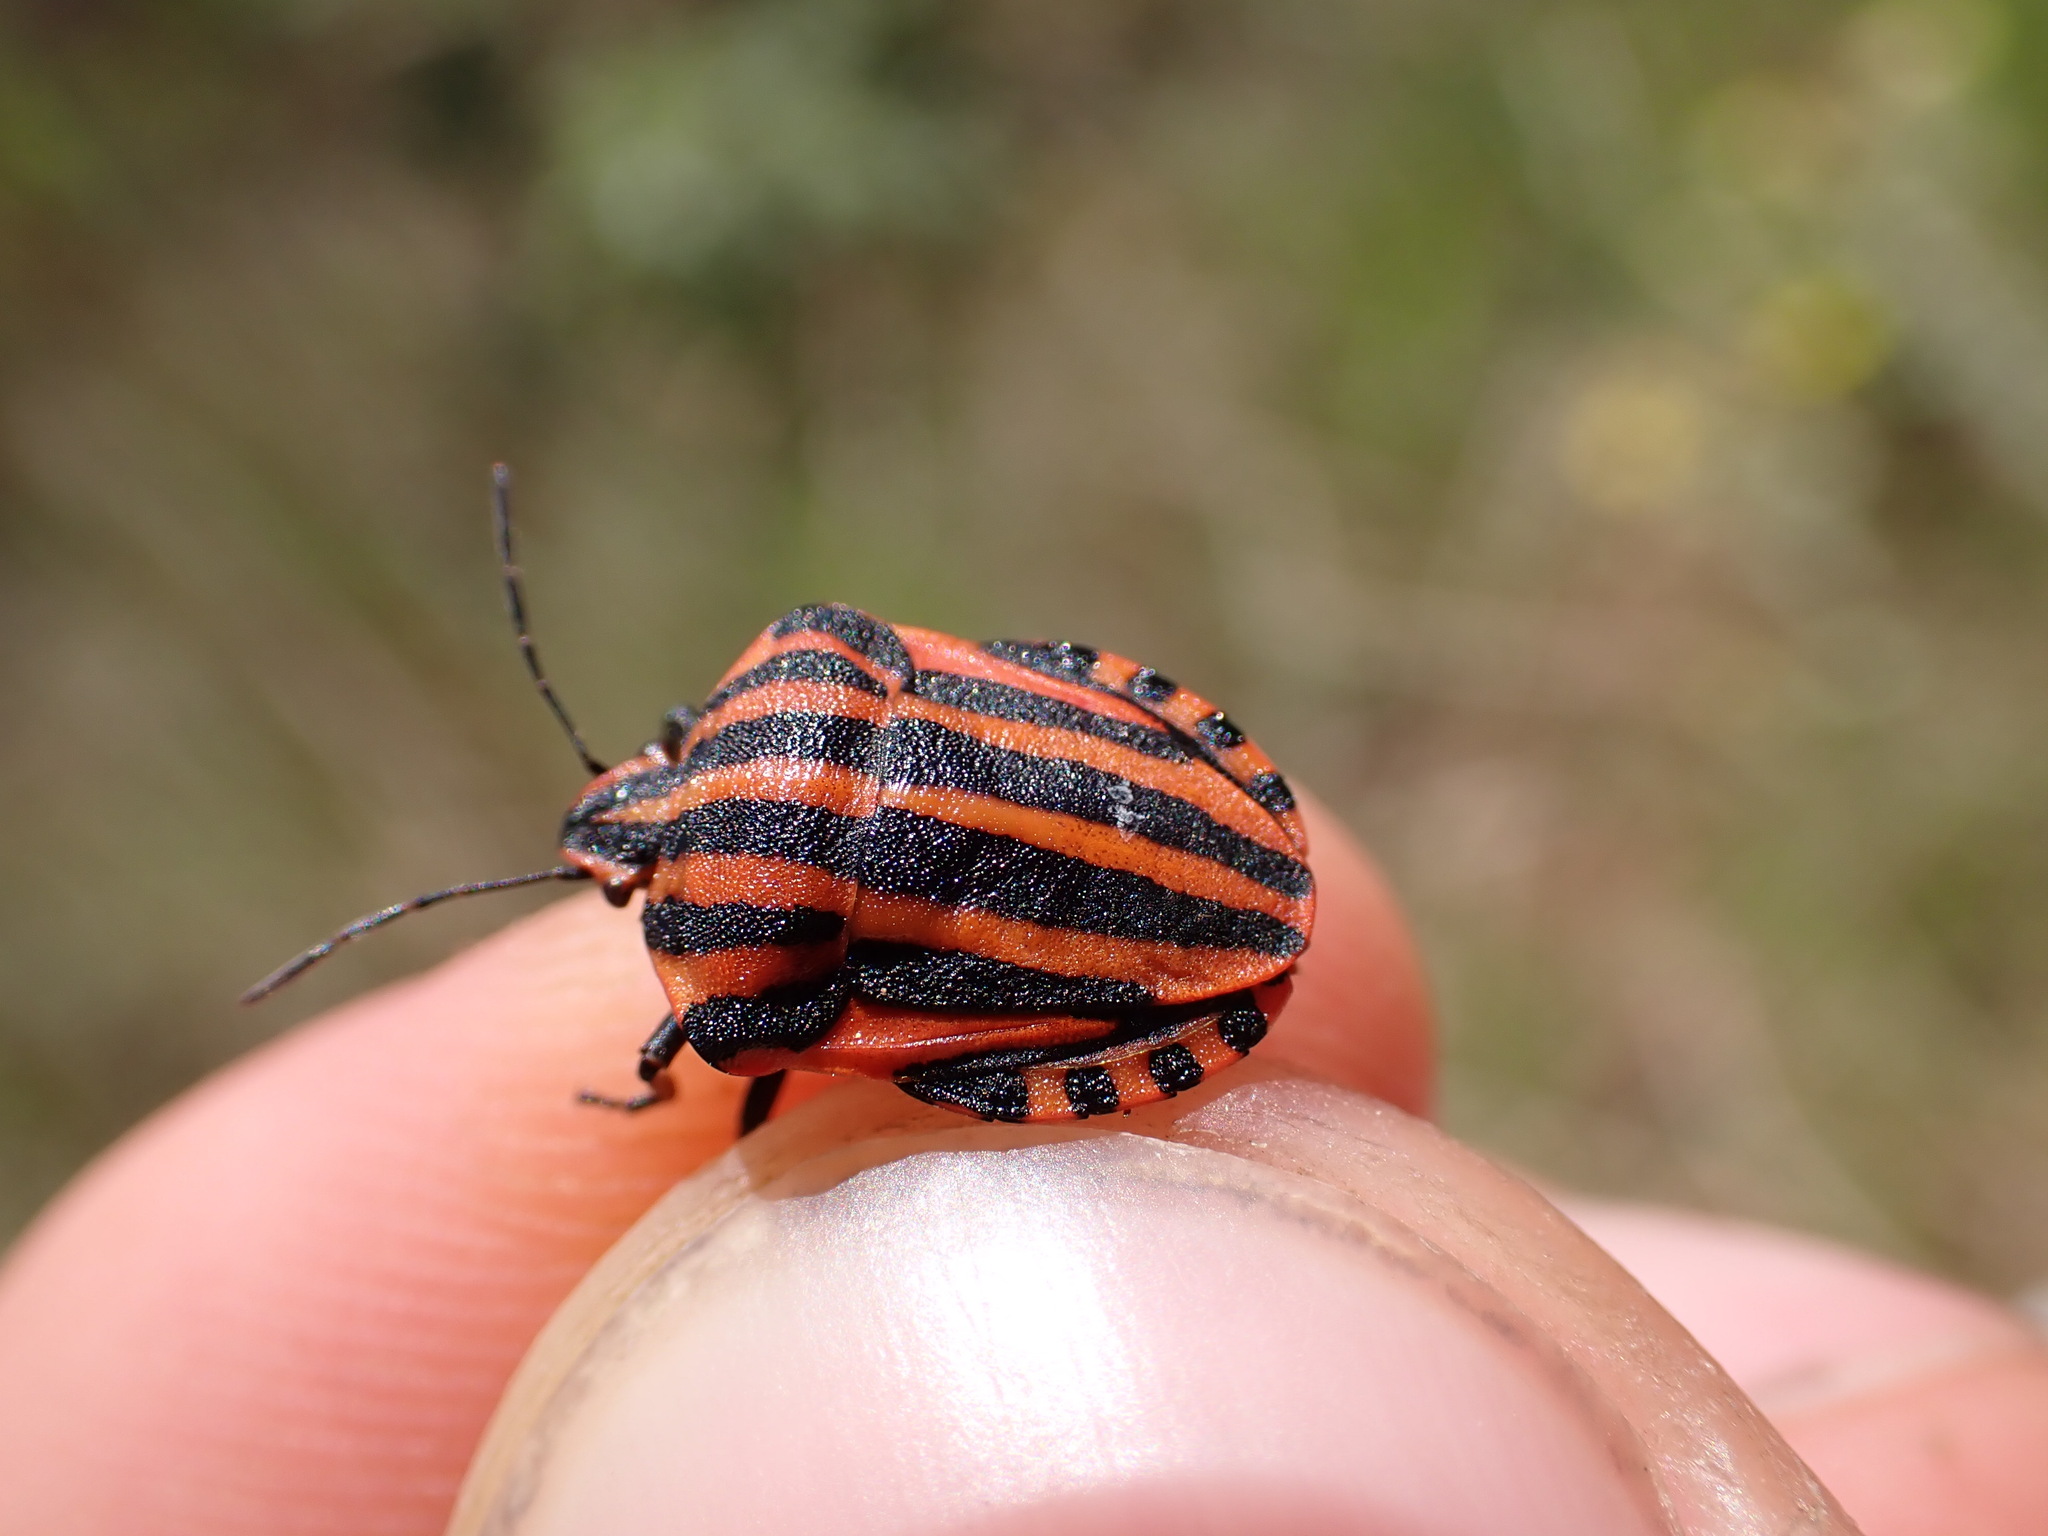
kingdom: Animalia
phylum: Arthropoda
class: Insecta
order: Hemiptera
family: Pentatomidae
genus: Graphosoma
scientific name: Graphosoma italicum
